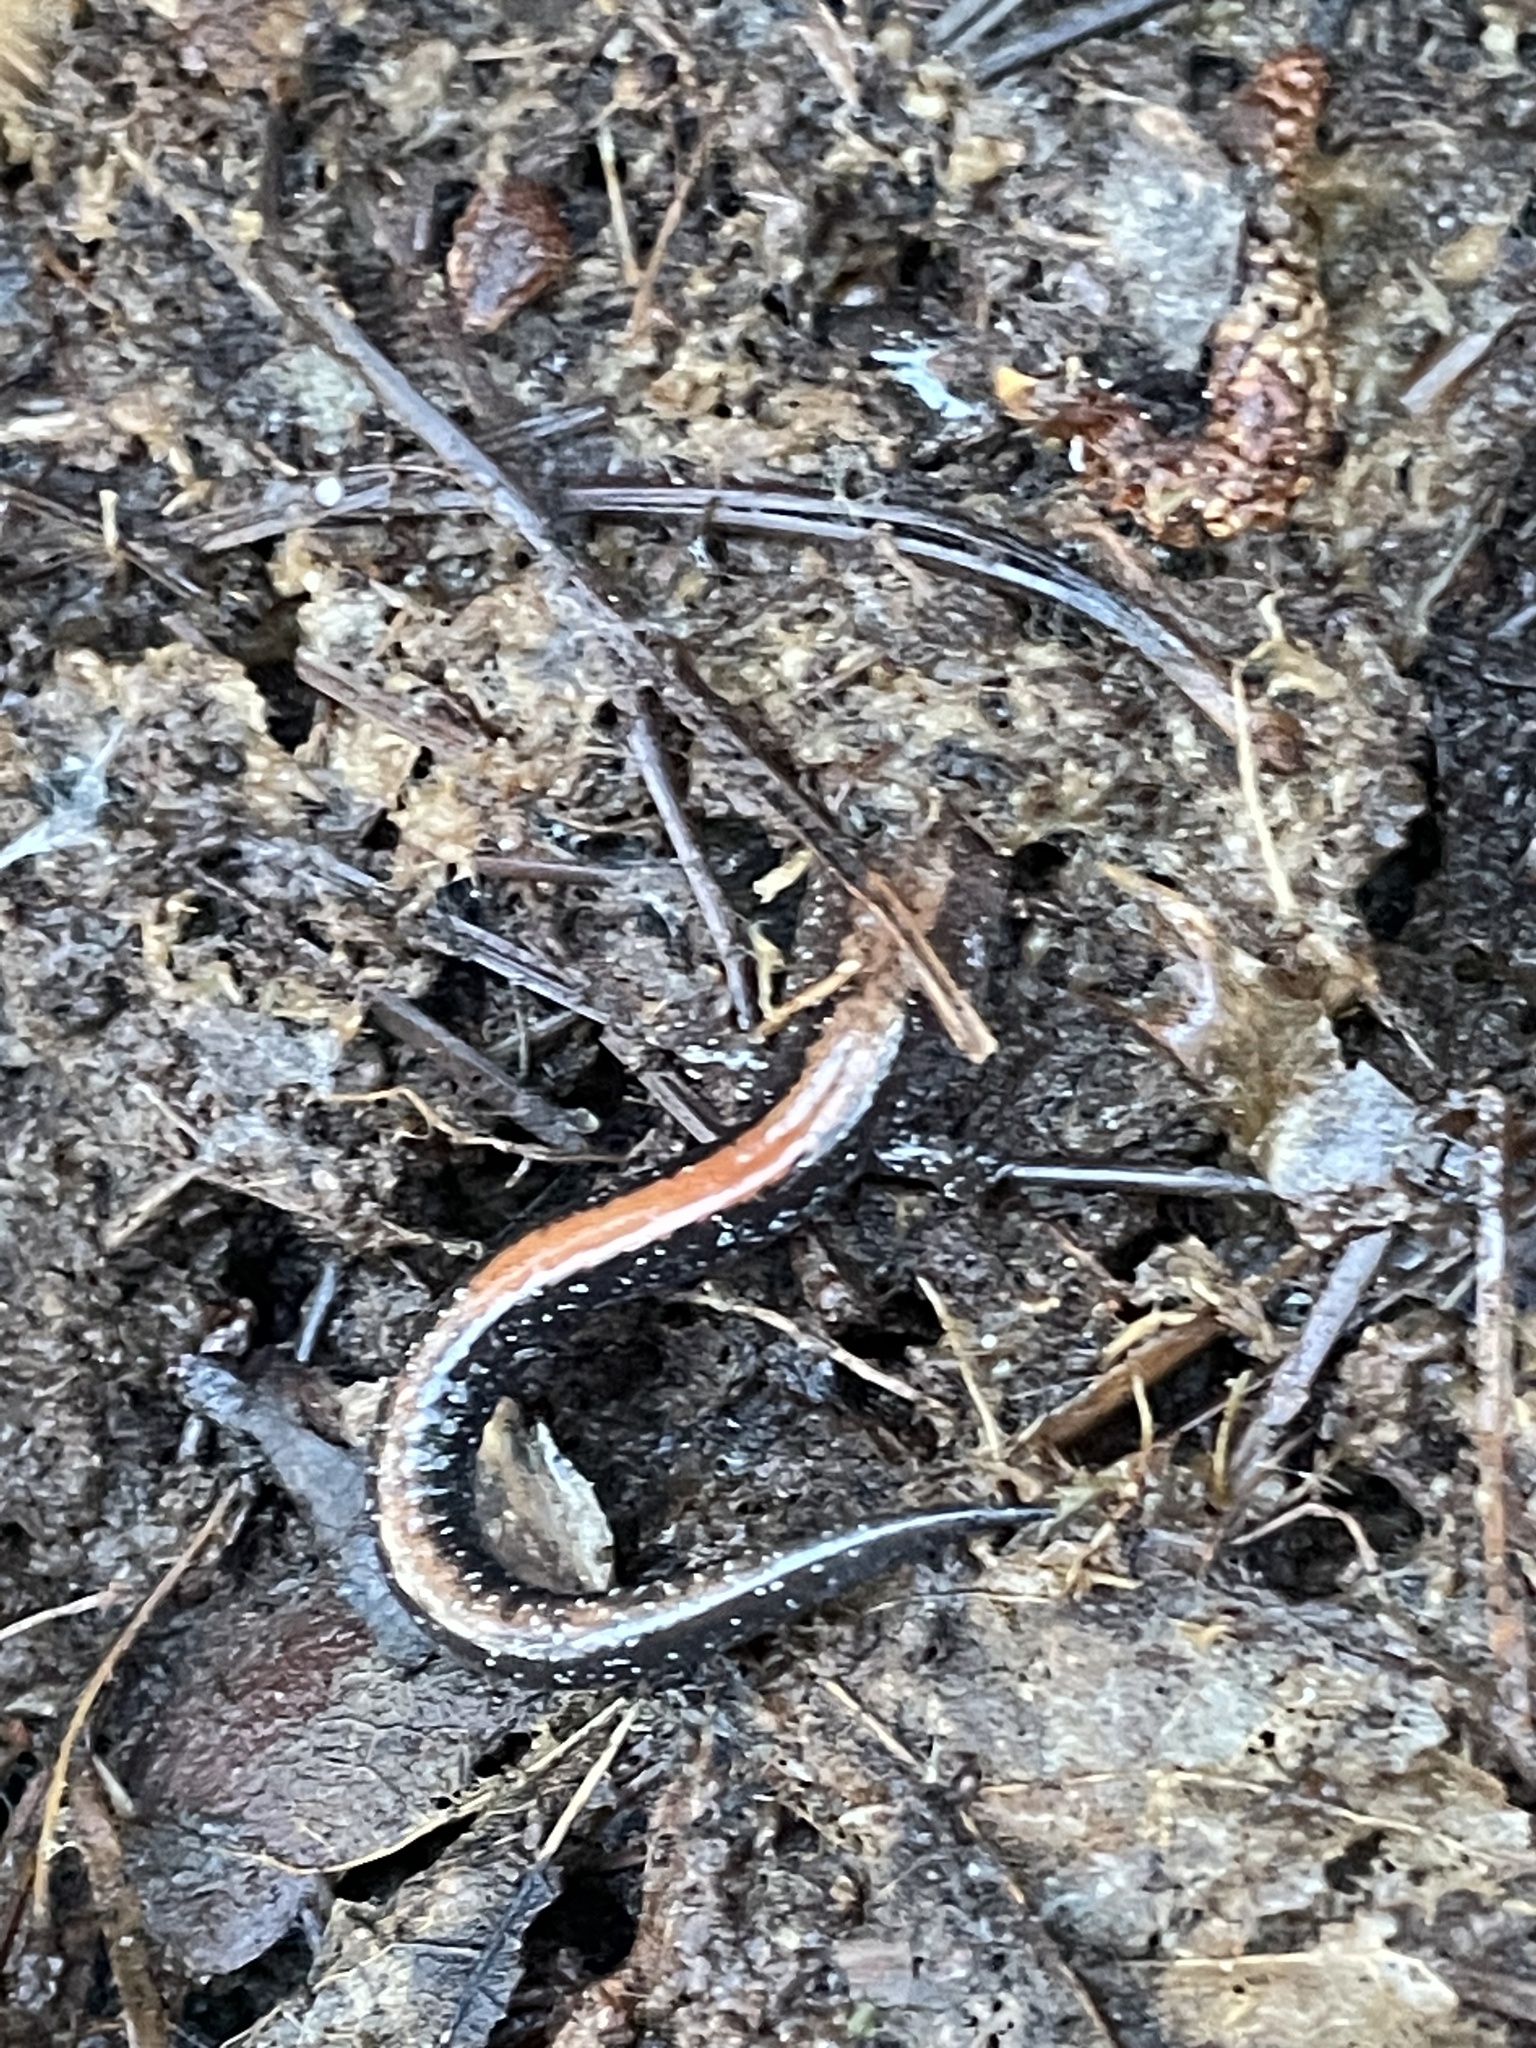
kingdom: Animalia
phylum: Chordata
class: Amphibia
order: Caudata
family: Plethodontidae
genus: Plethodon
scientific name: Plethodon cinereus
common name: Redback salamander
